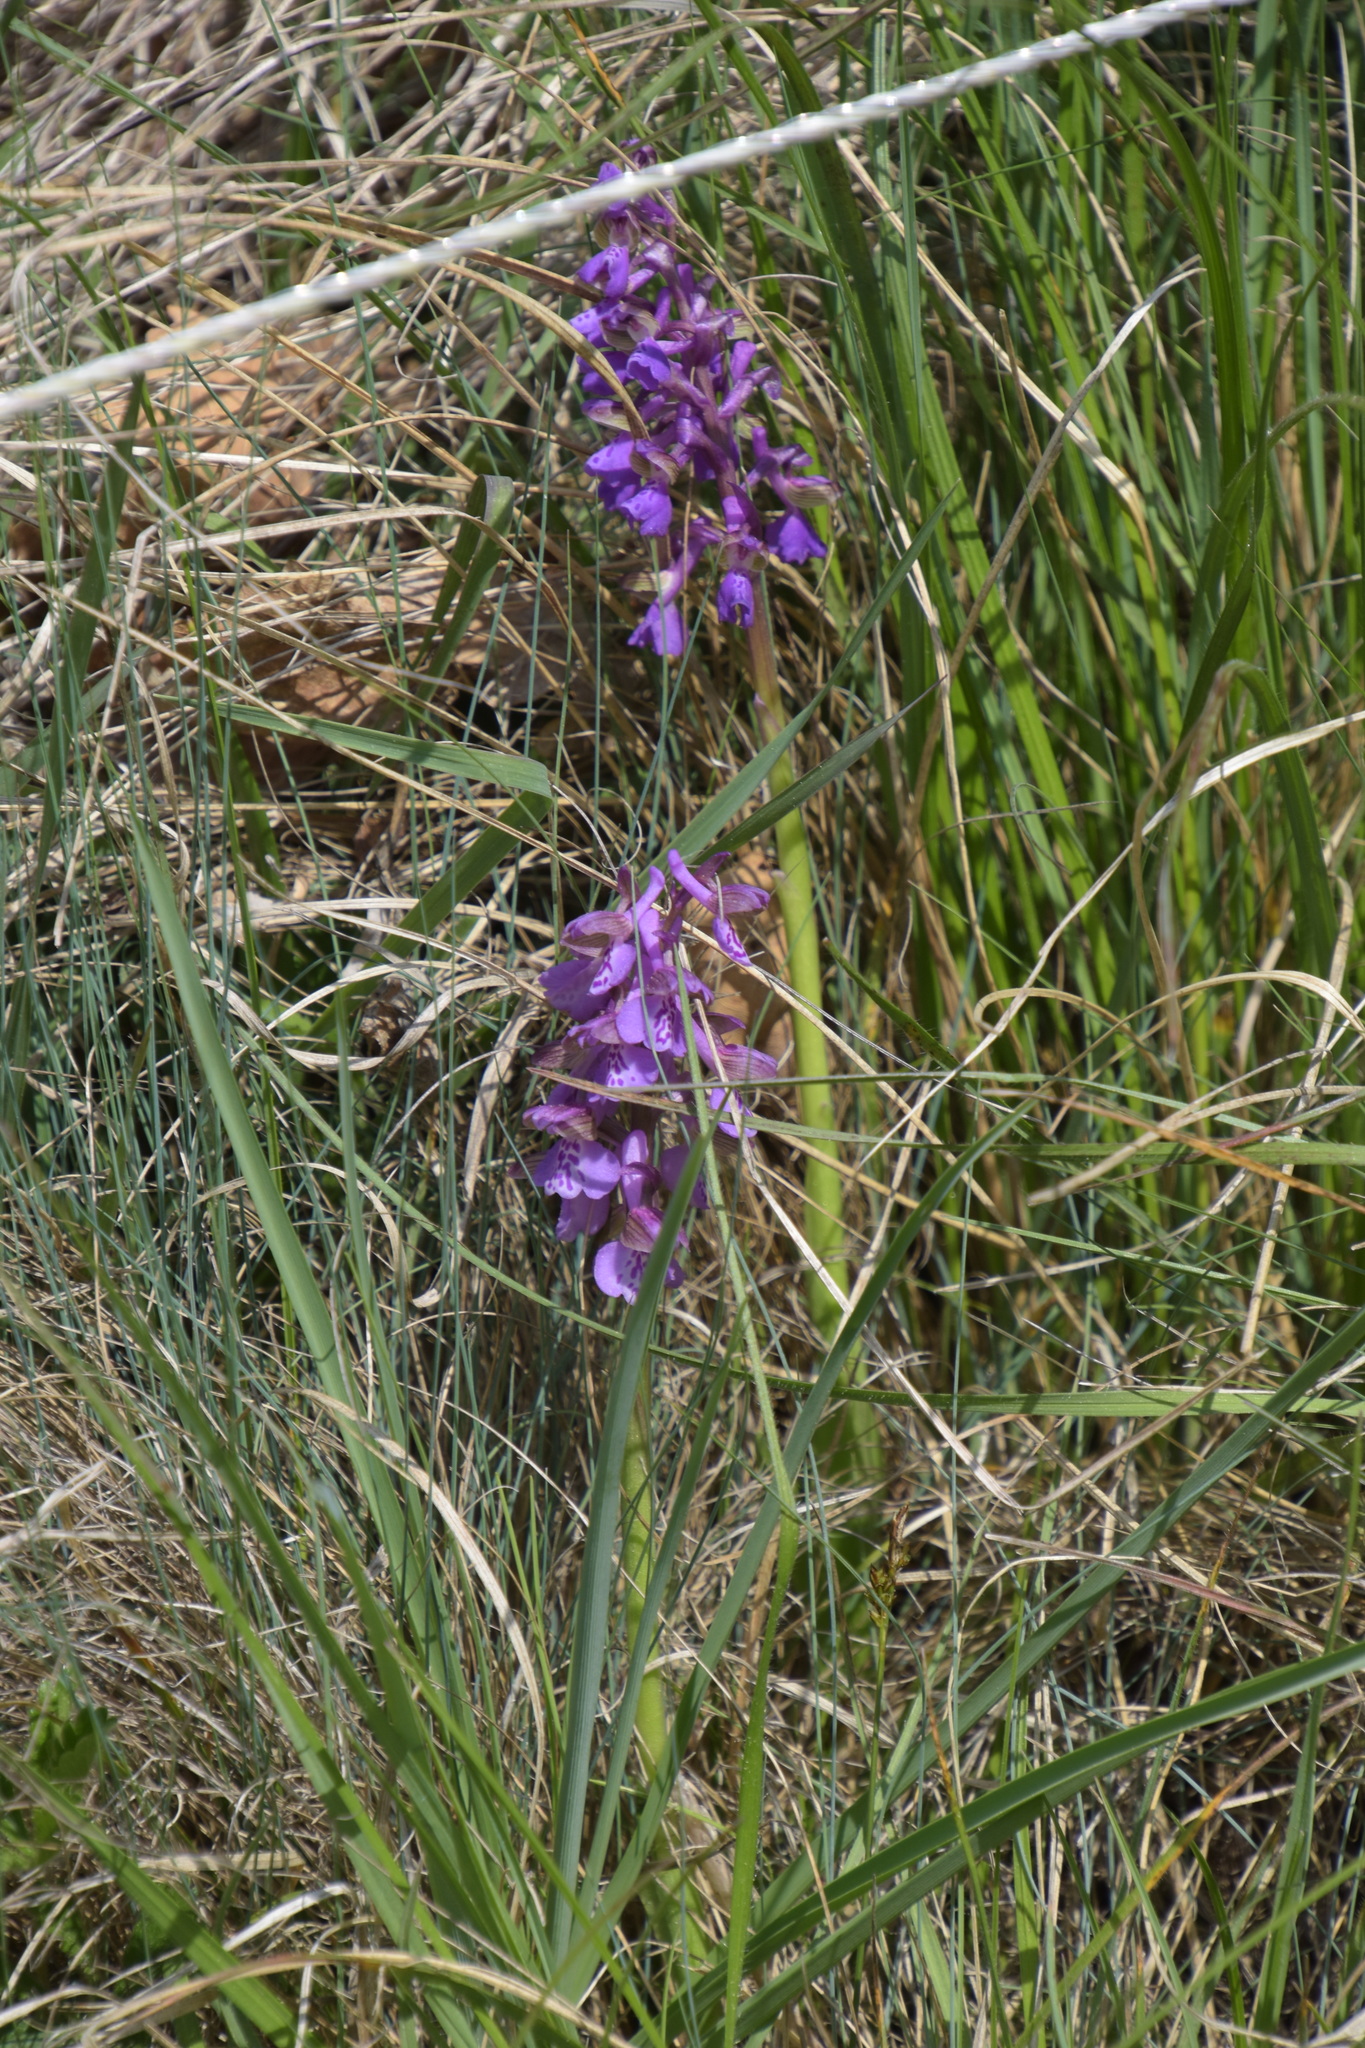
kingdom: Plantae
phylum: Tracheophyta
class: Liliopsida
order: Asparagales
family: Orchidaceae
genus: Anacamptis
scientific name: Anacamptis morio
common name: Green-winged orchid
